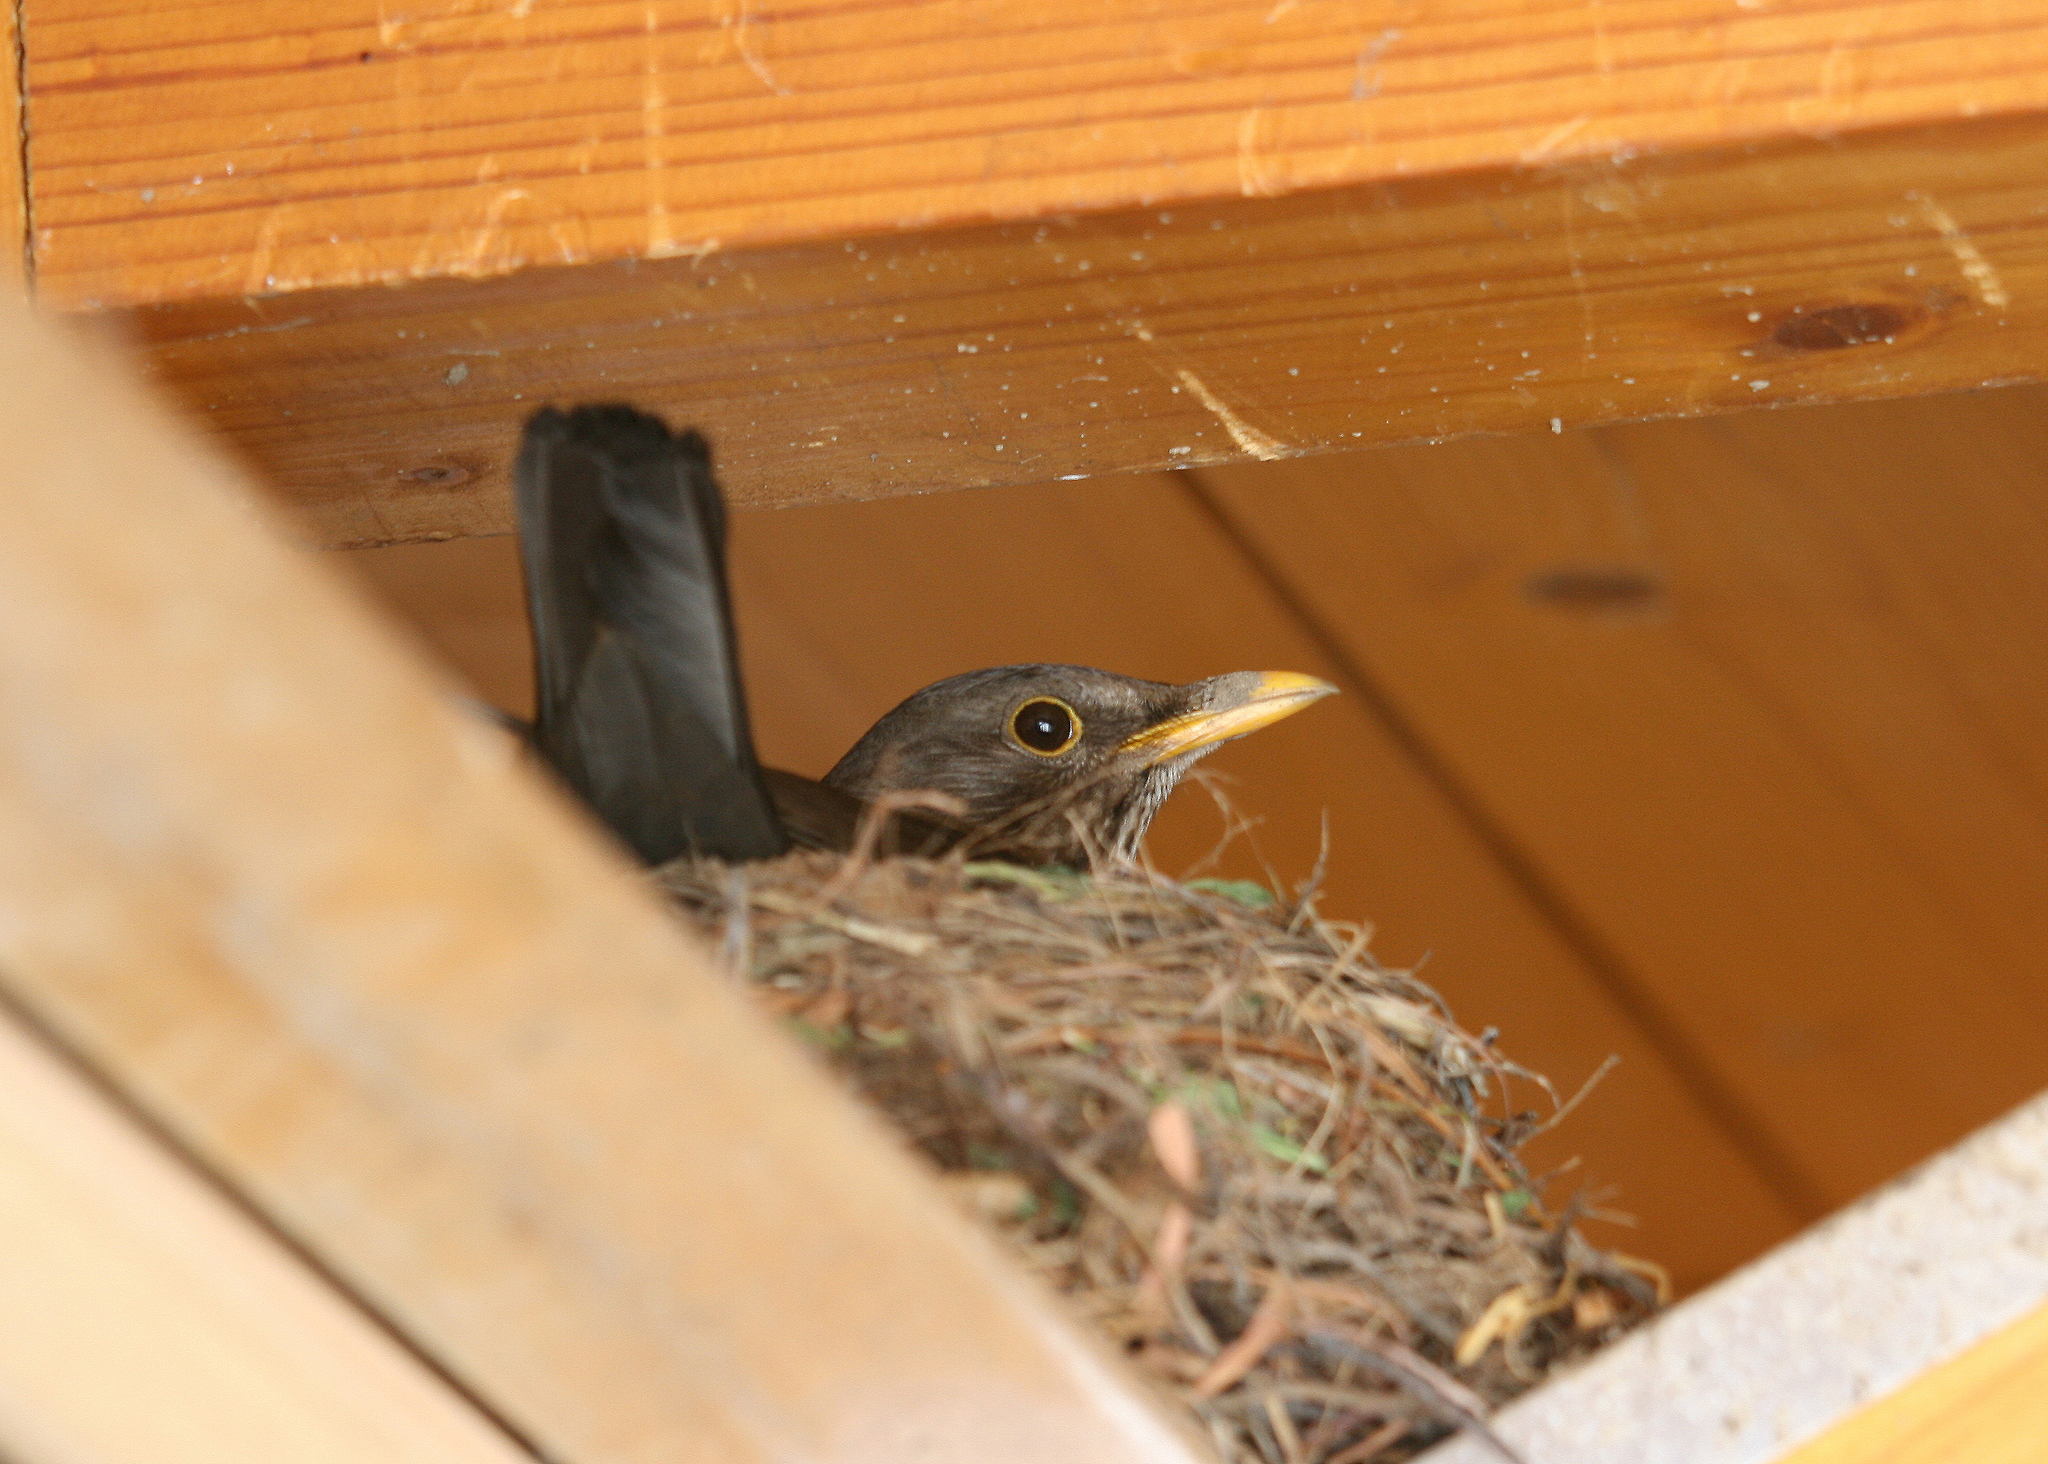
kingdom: Animalia
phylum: Chordata
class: Aves
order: Passeriformes
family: Turdidae
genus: Turdus
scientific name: Turdus merula
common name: Common blackbird
